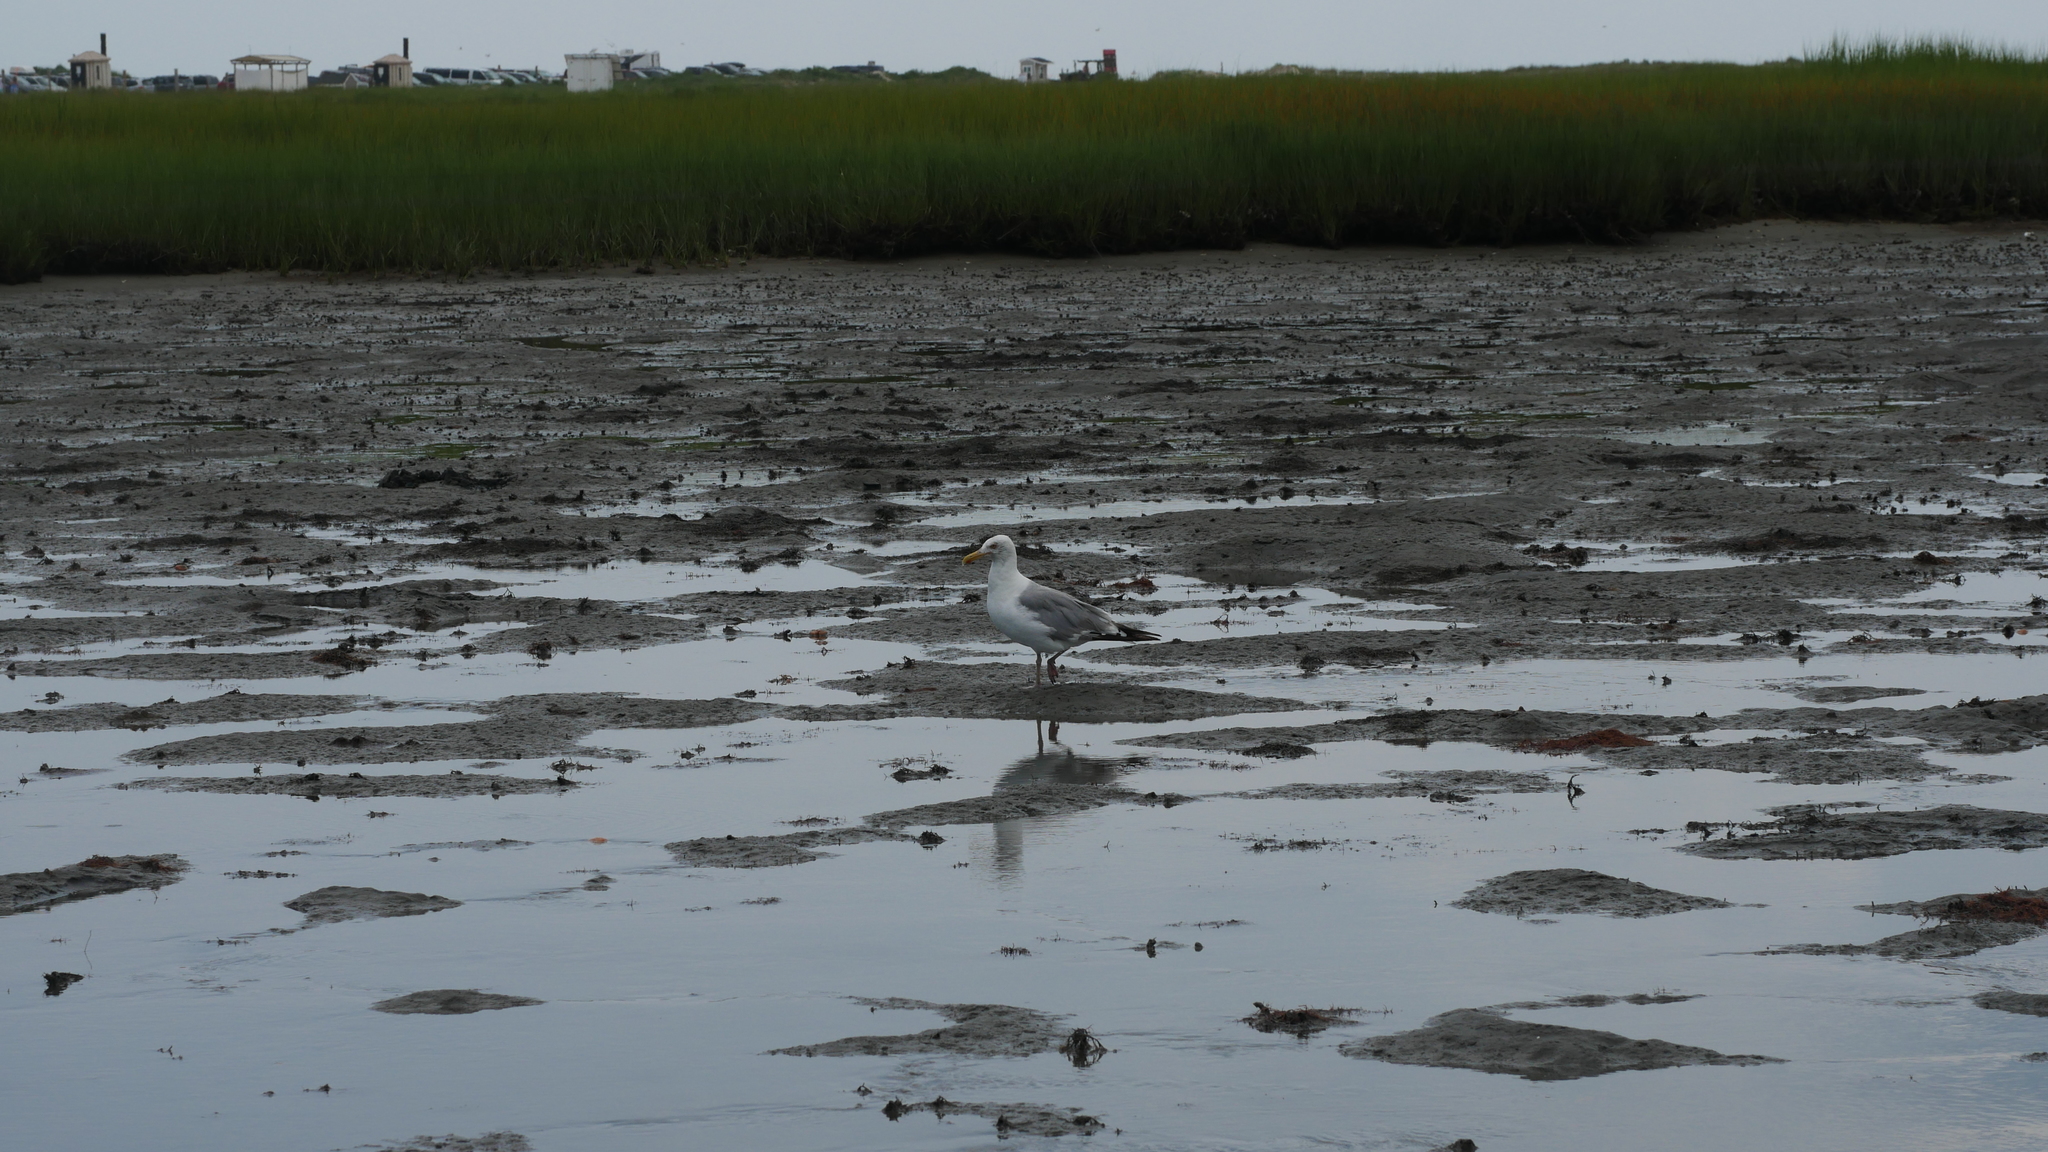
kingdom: Animalia
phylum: Chordata
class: Aves
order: Charadriiformes
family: Laridae
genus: Larus
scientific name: Larus argentatus
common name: Herring gull
